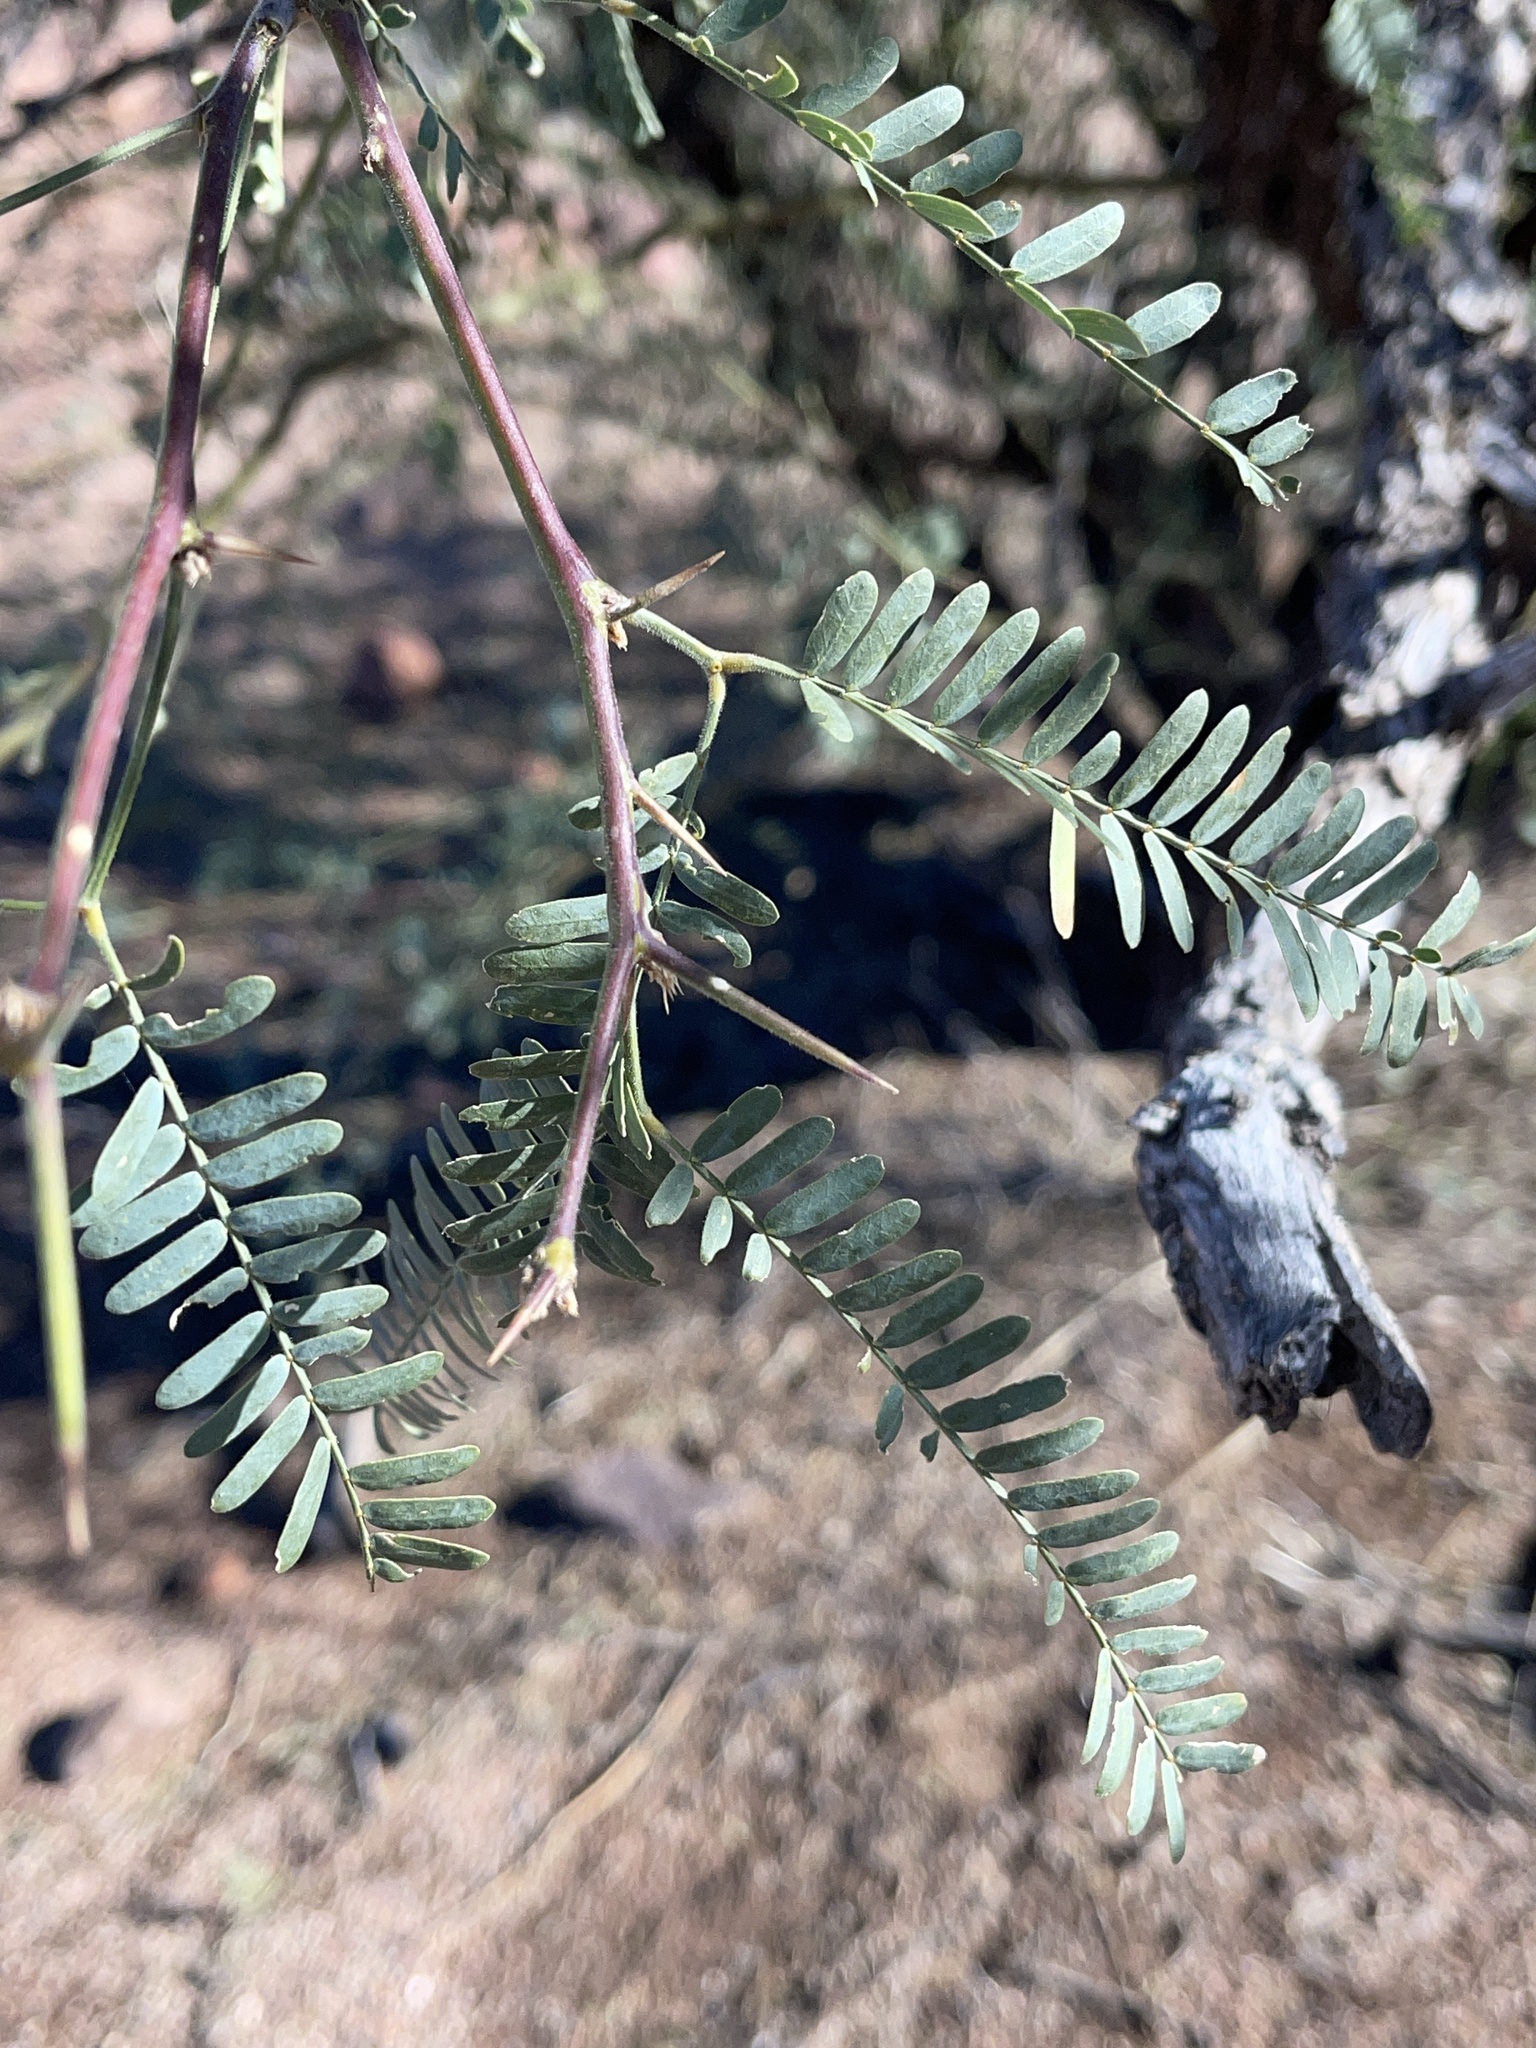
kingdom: Plantae
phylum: Tracheophyta
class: Magnoliopsida
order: Fabales
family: Fabaceae
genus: Prosopis
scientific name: Prosopis velutina
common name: Velvet mesquite
